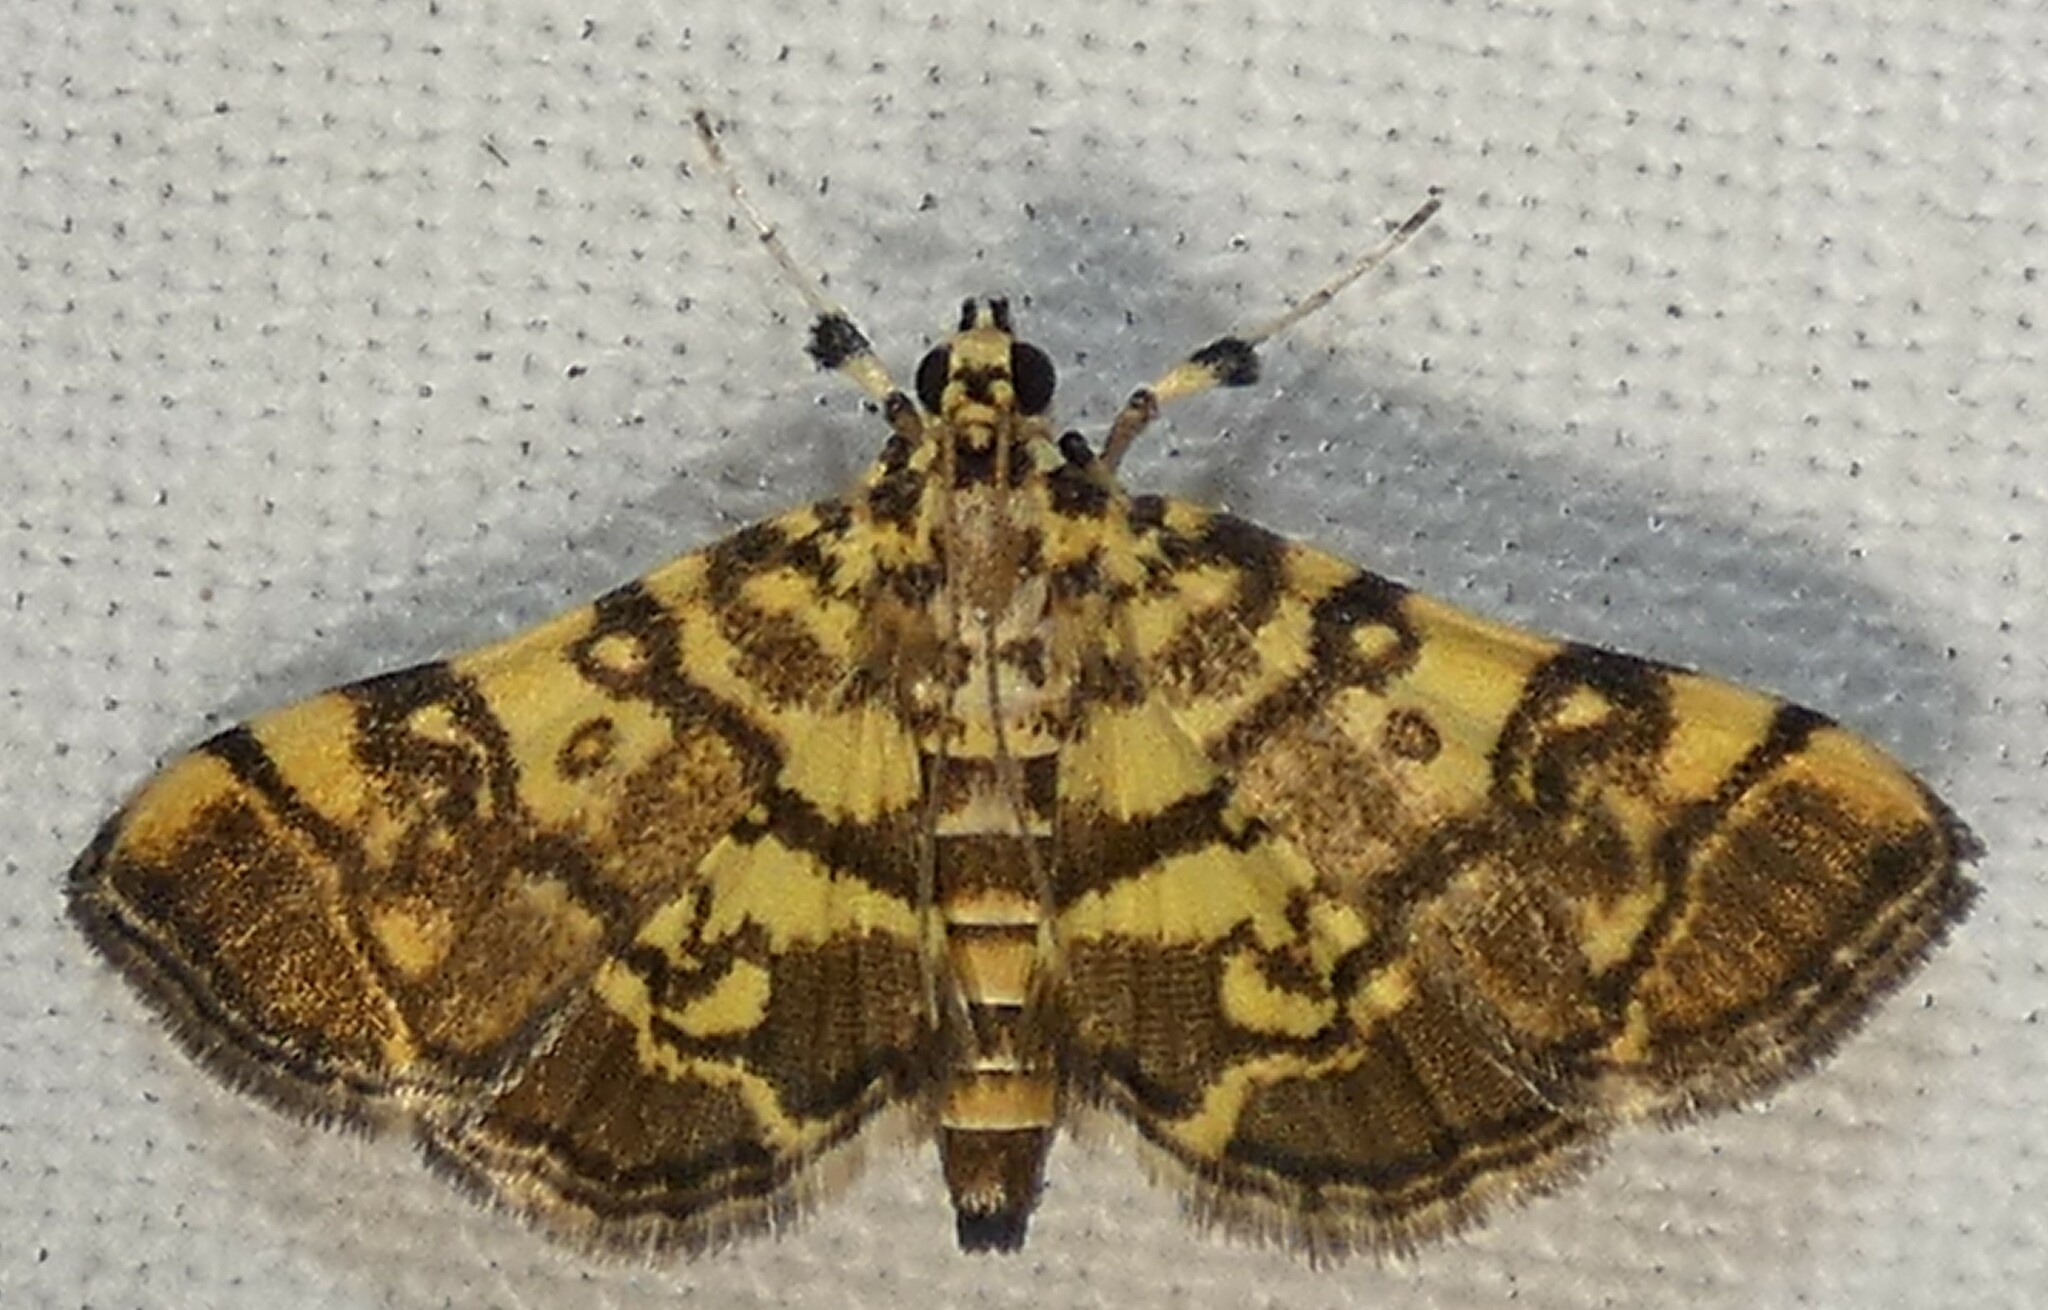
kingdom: Animalia
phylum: Arthropoda
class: Insecta
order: Lepidoptera
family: Crambidae
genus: Apogeshna
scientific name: Apogeshna stenialis
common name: Checkered apogeshna moth
